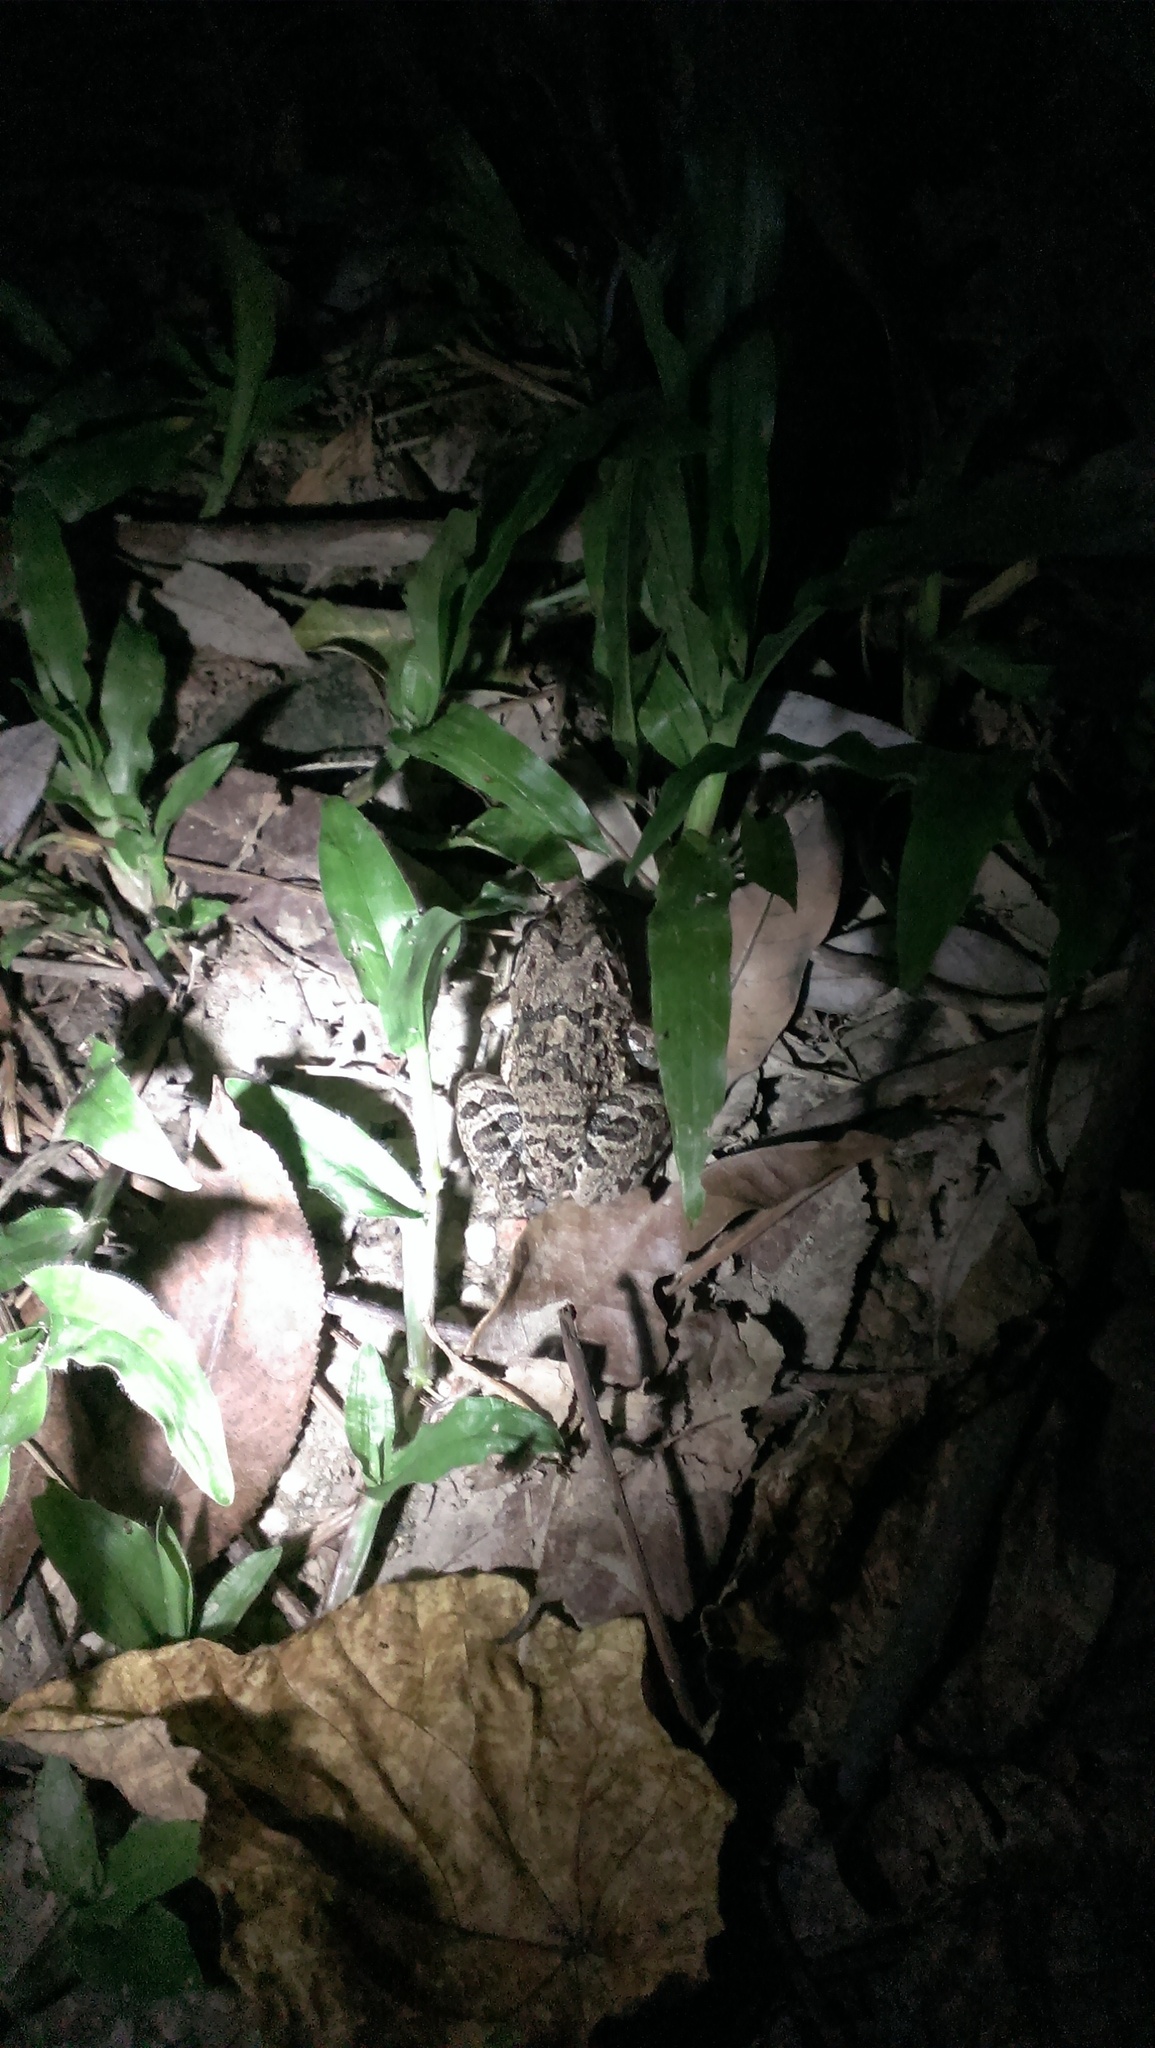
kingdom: Animalia
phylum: Chordata
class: Amphibia
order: Anura
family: Dicroglossidae
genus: Fejervarya
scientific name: Fejervarya limnocharis
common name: Asian grass frog/common pond frog/field frog/grass frog/indian rice frog
